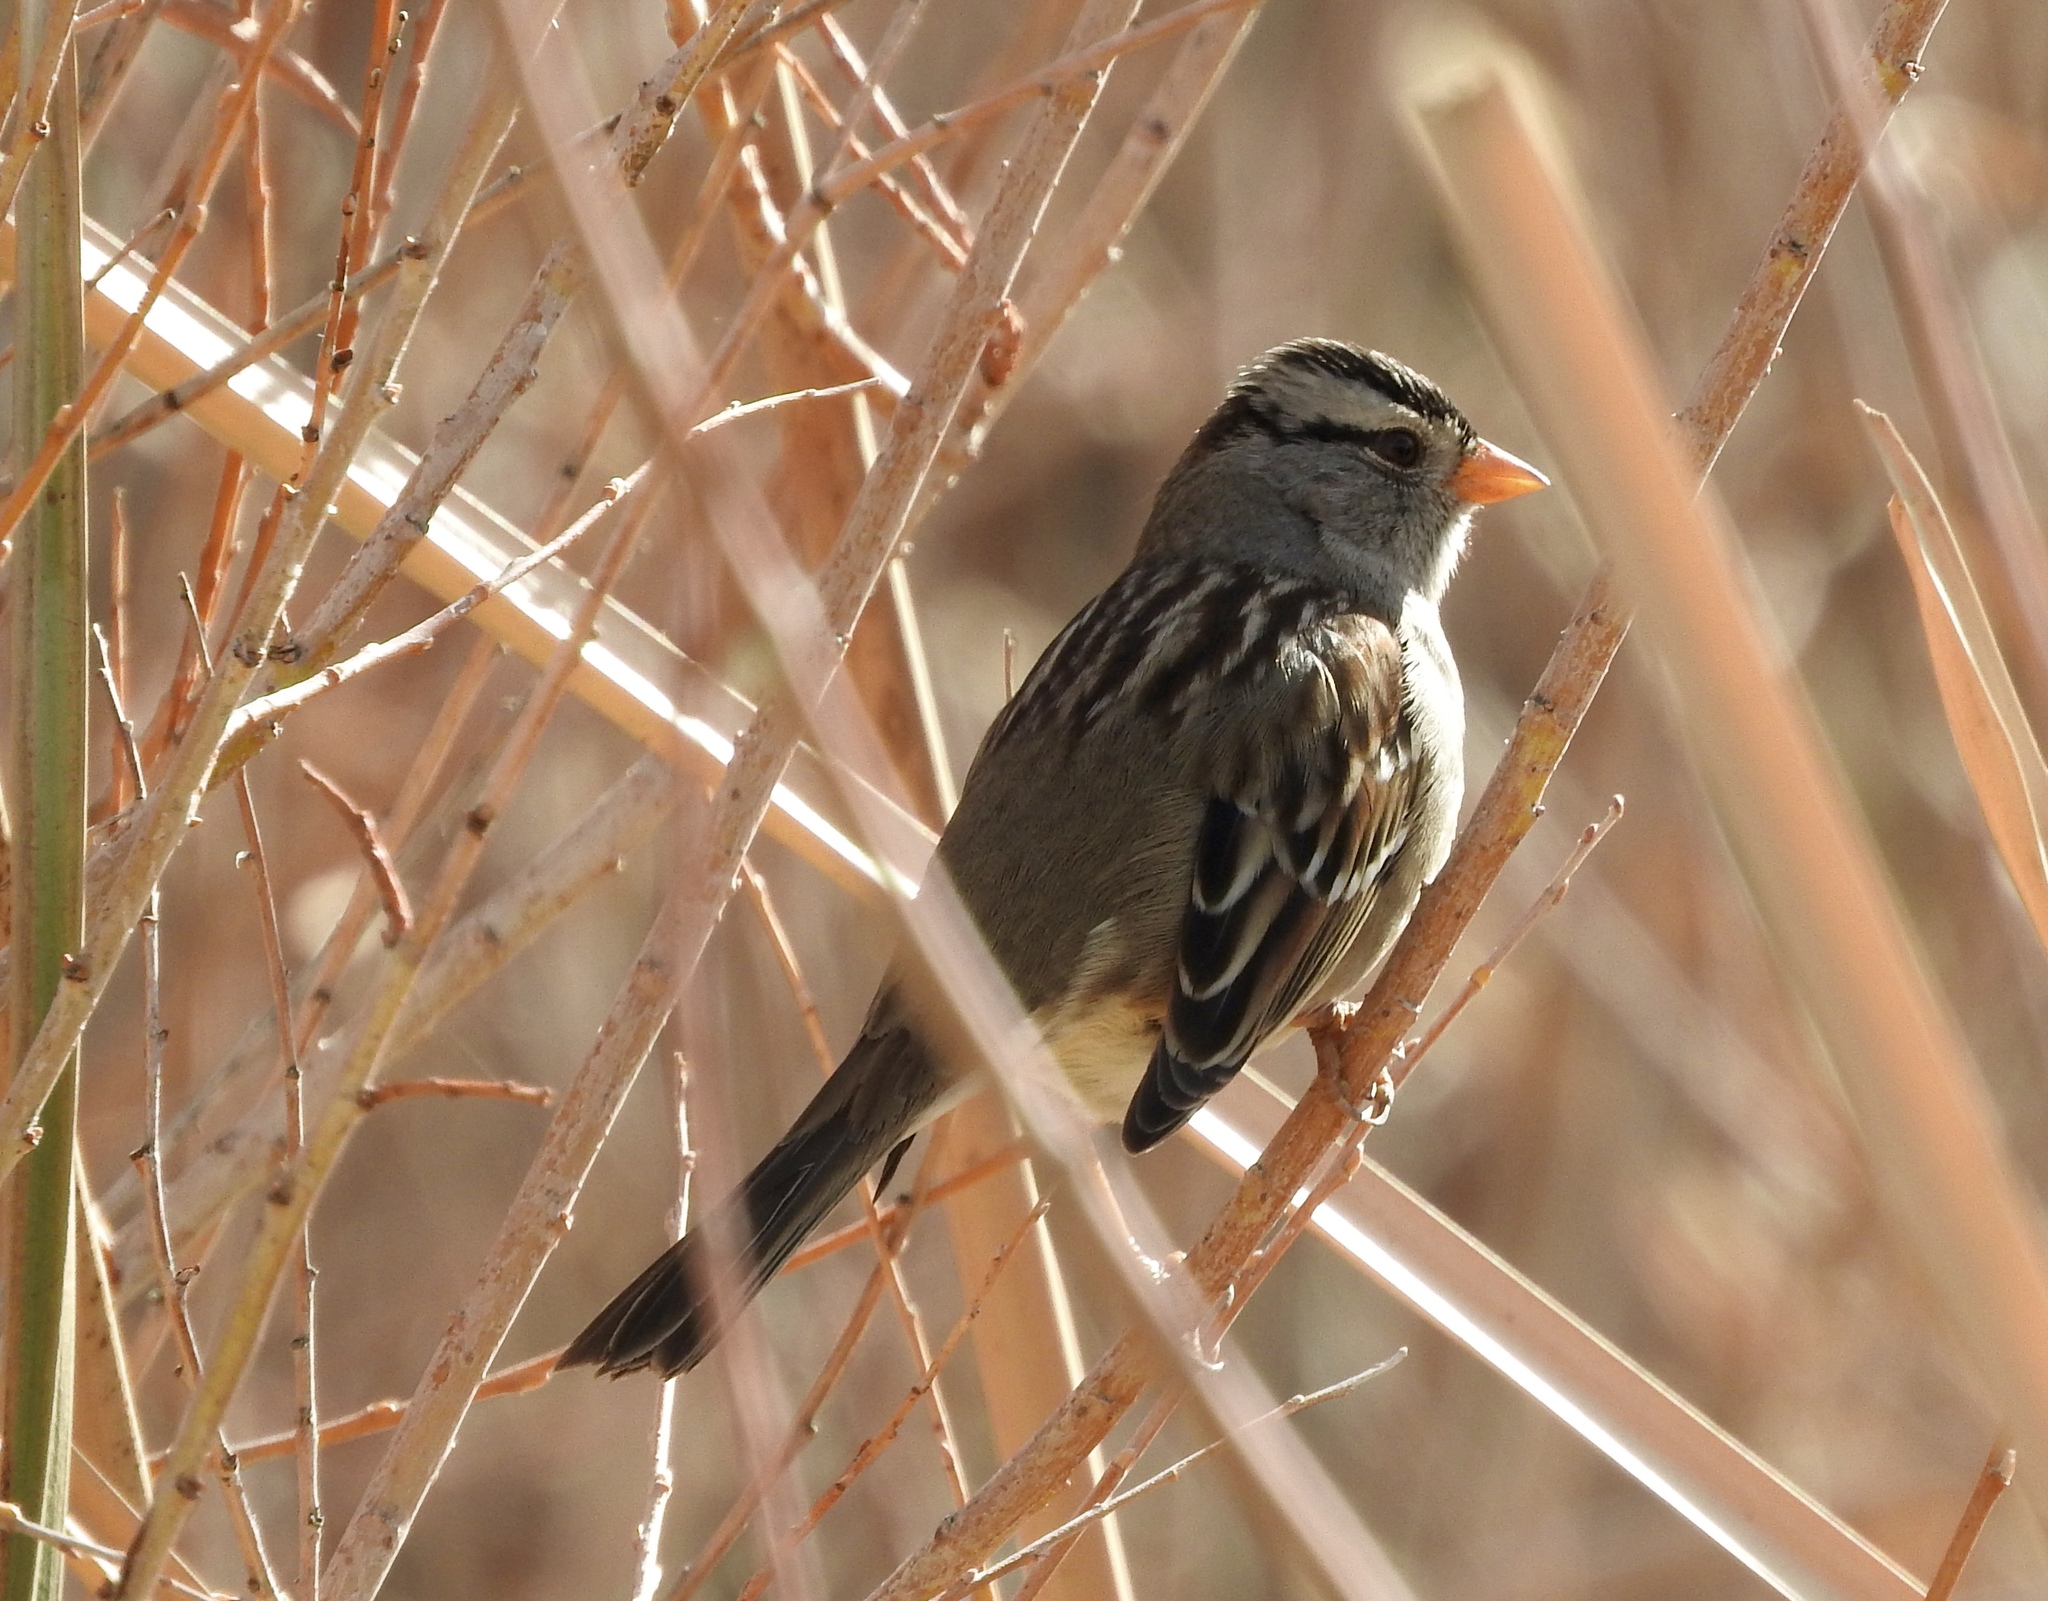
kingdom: Animalia
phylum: Chordata
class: Aves
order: Passeriformes
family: Passerellidae
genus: Zonotrichia
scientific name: Zonotrichia leucophrys
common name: White-crowned sparrow
